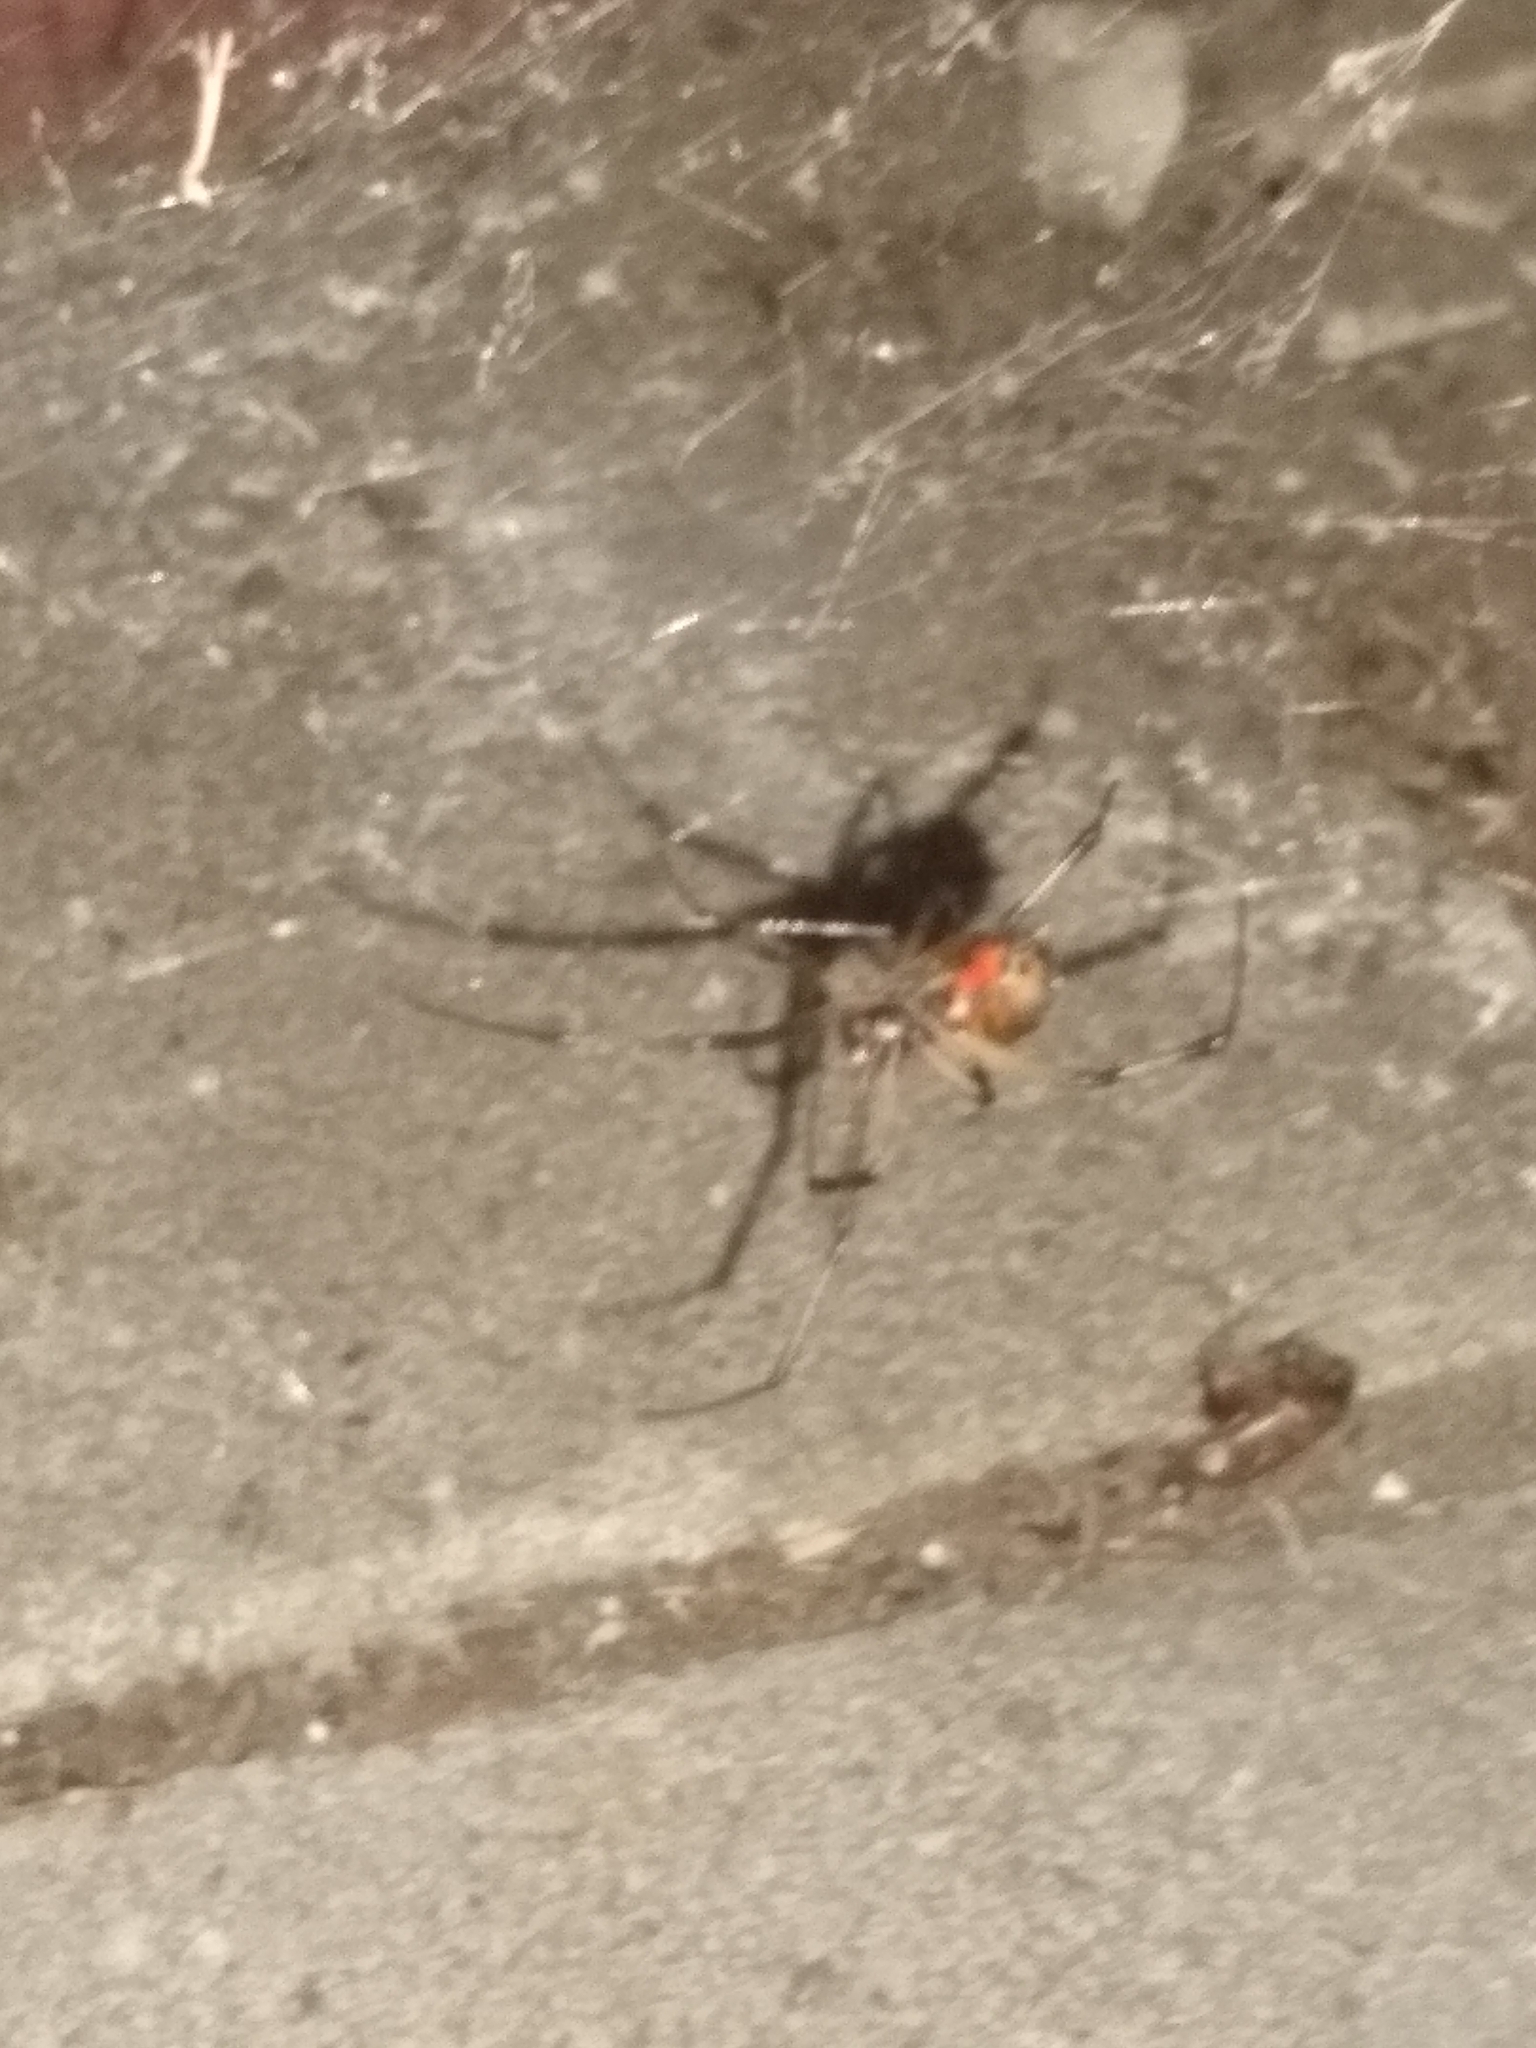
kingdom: Animalia
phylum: Arthropoda
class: Arachnida
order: Araneae
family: Theridiidae
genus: Latrodectus
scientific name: Latrodectus geometricus
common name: Brown widow spider
